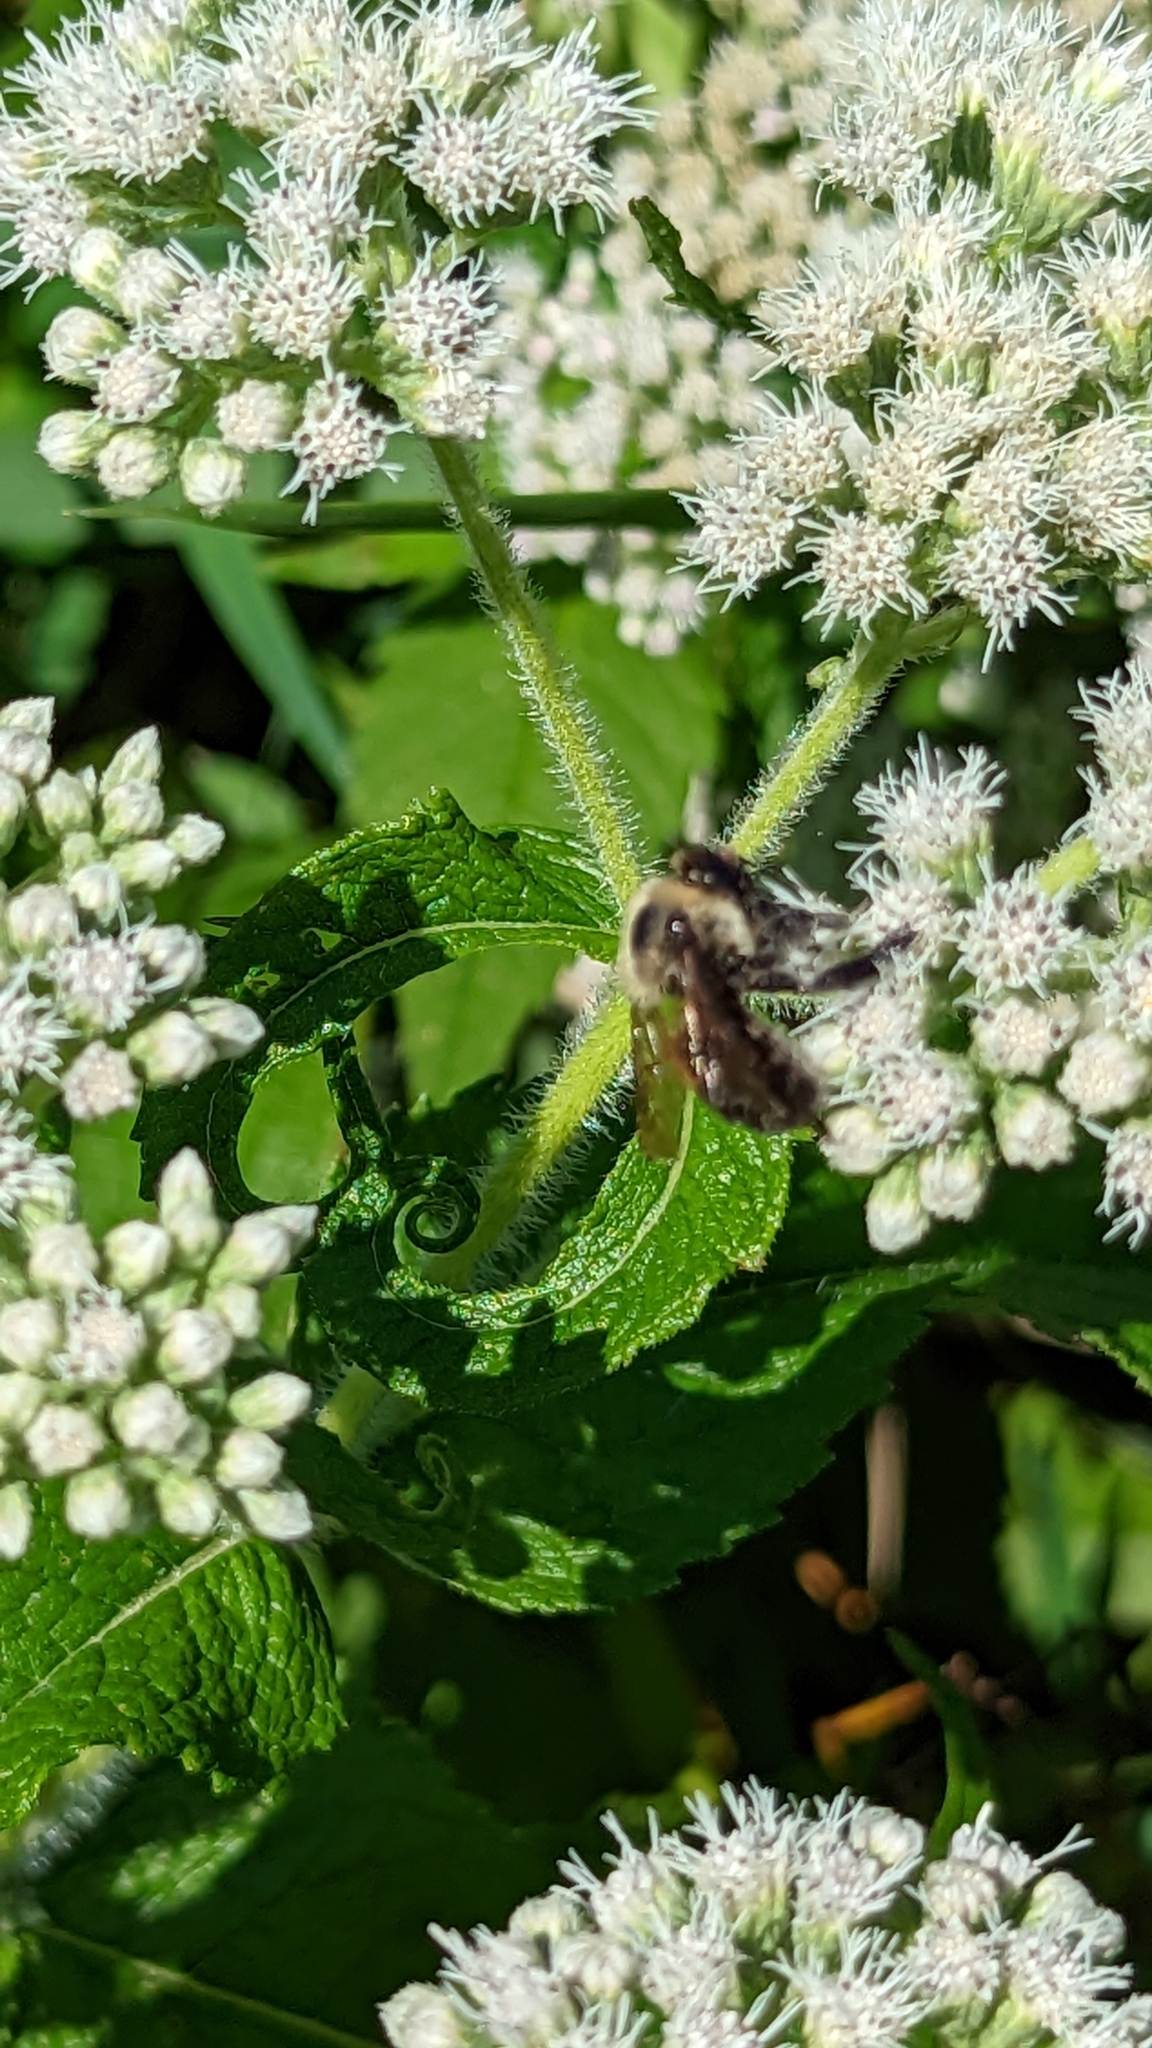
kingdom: Animalia
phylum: Arthropoda
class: Insecta
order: Hymenoptera
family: Apidae
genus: Bombus
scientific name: Bombus griseocollis
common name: Brown-belted bumble bee
